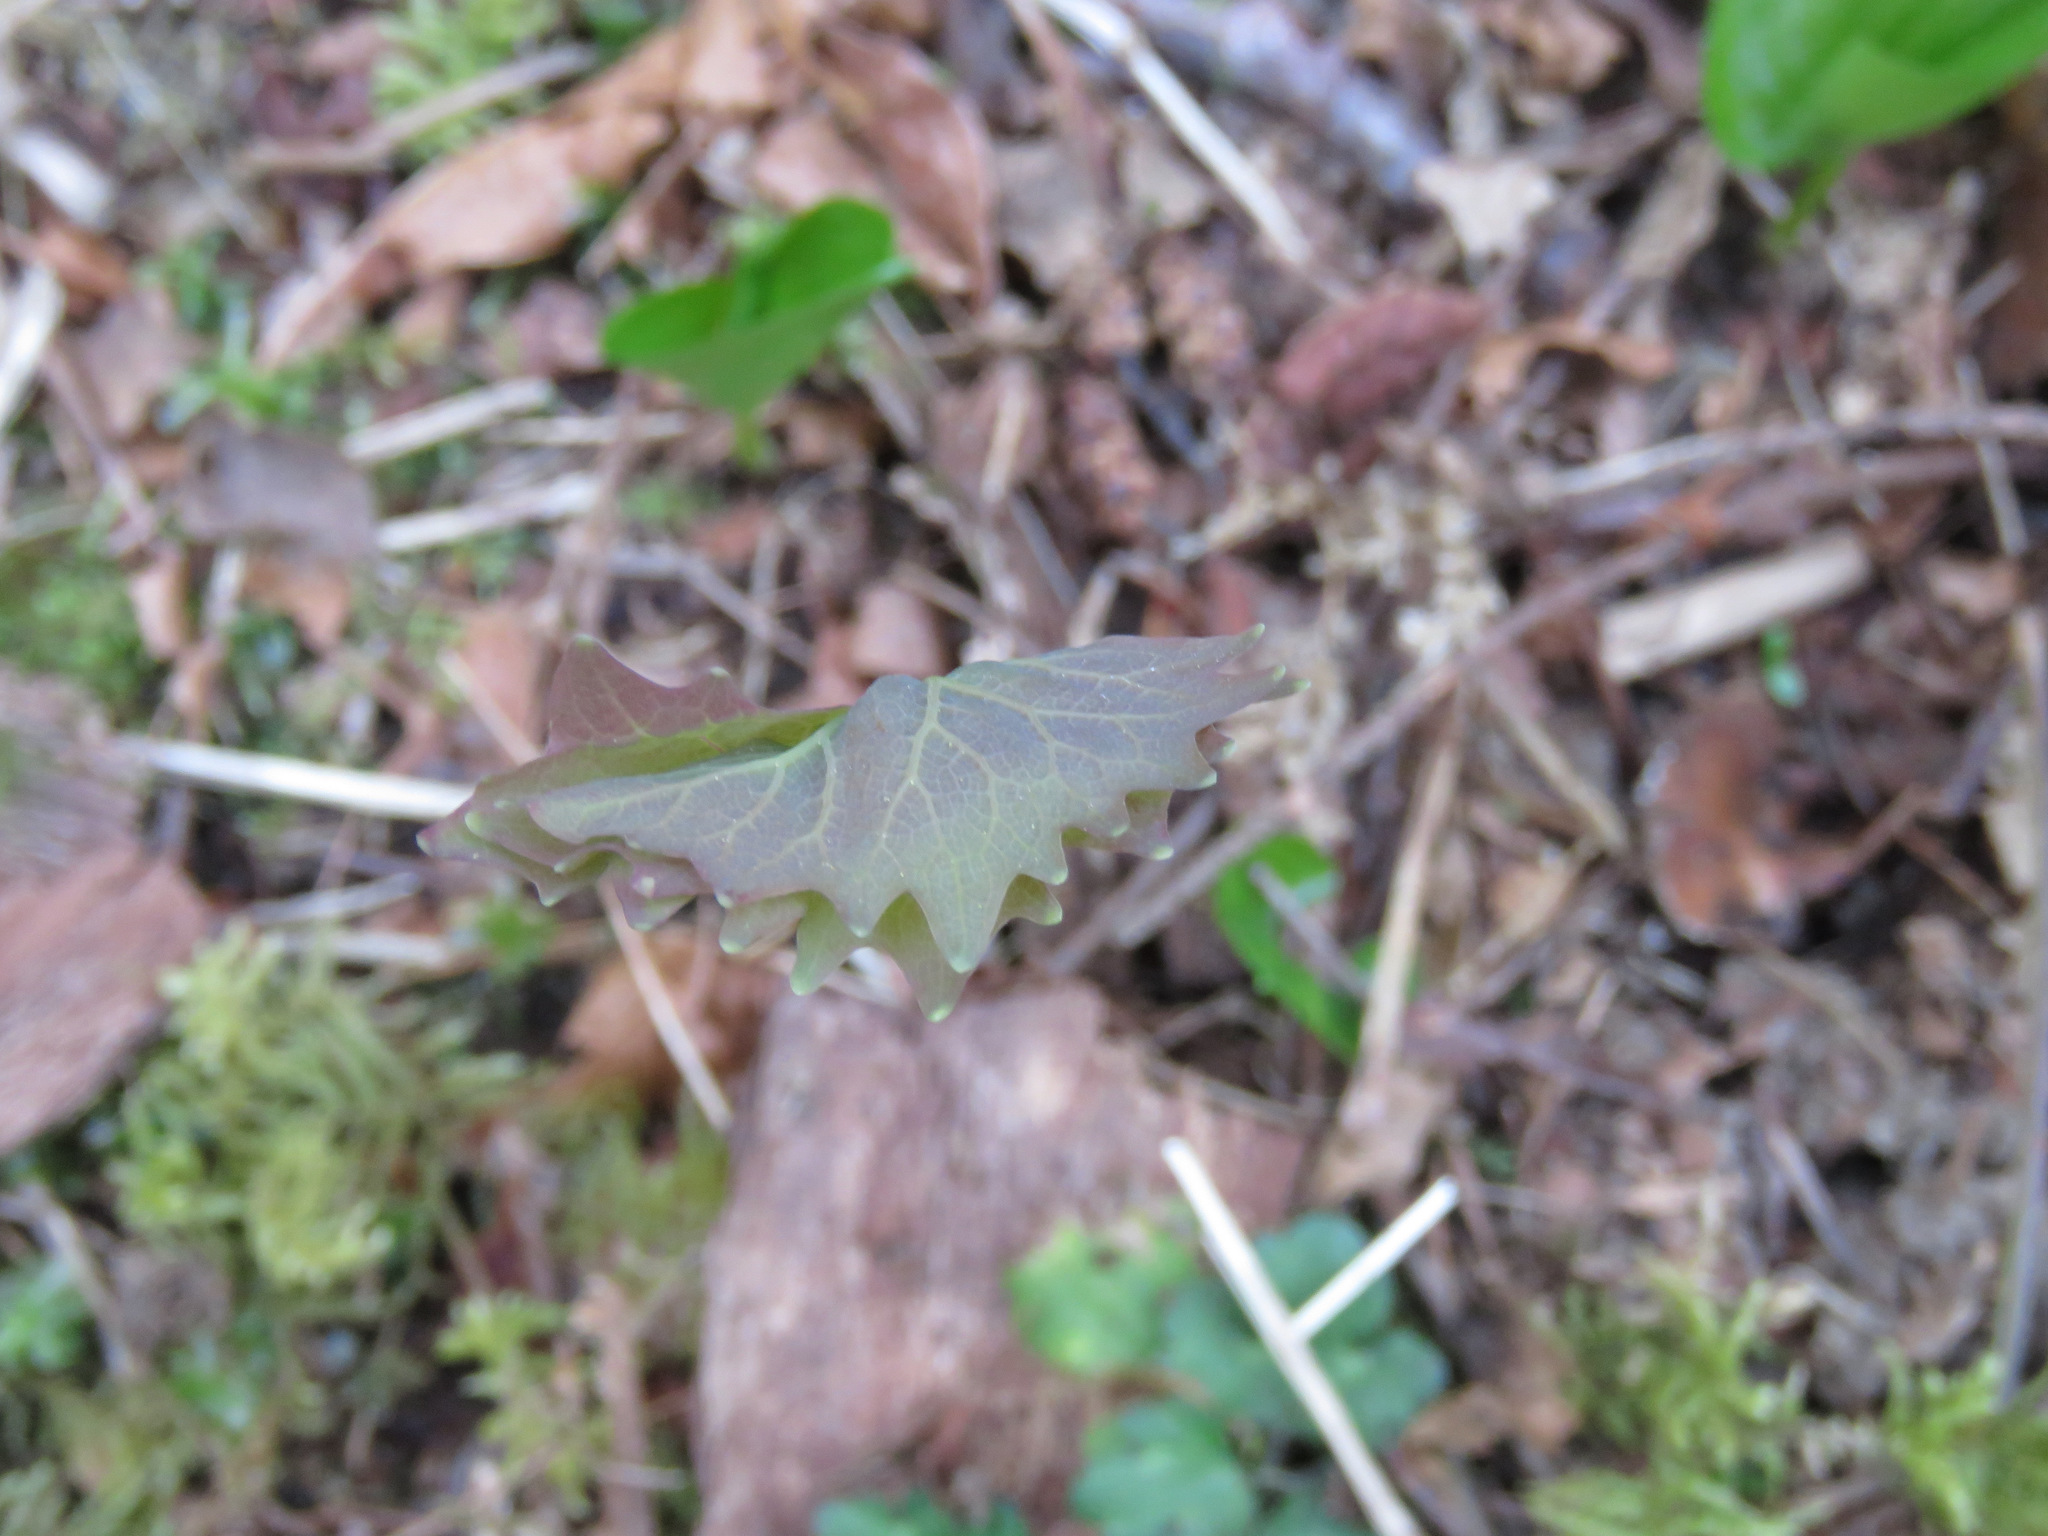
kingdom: Plantae
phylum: Tracheophyta
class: Magnoliopsida
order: Ranunculales
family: Berberidaceae
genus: Achlys
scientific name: Achlys triphylla
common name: Vanilla-leaf
